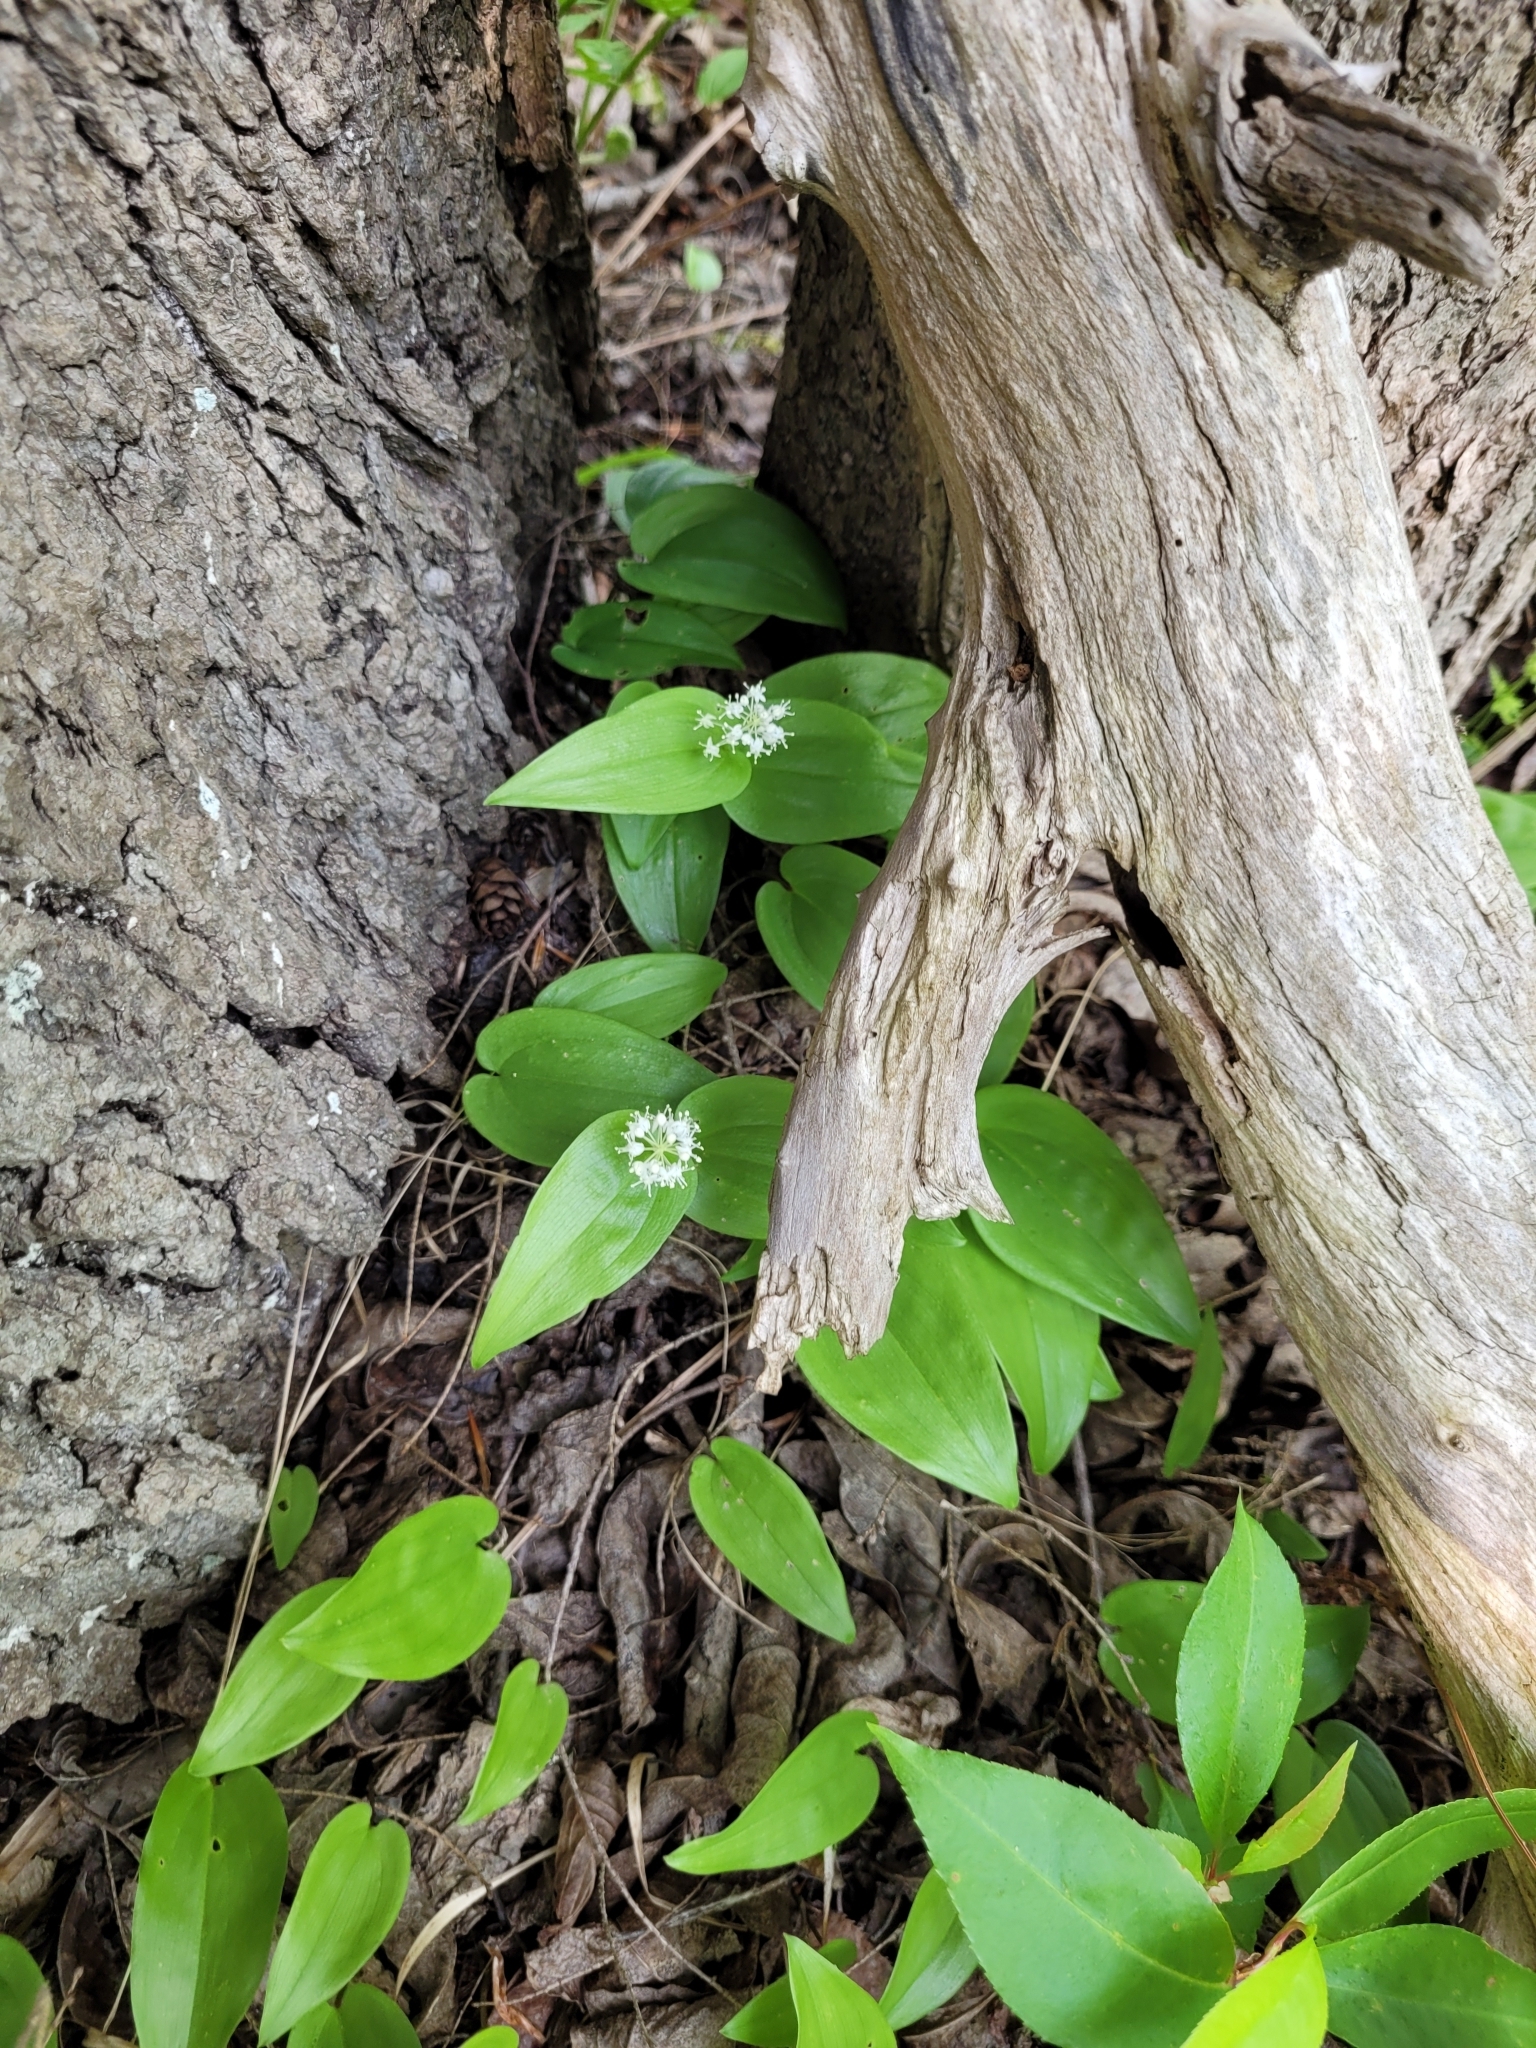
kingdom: Plantae
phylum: Tracheophyta
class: Liliopsida
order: Asparagales
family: Asparagaceae
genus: Maianthemum
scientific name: Maianthemum canadense
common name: False lily-of-the-valley
